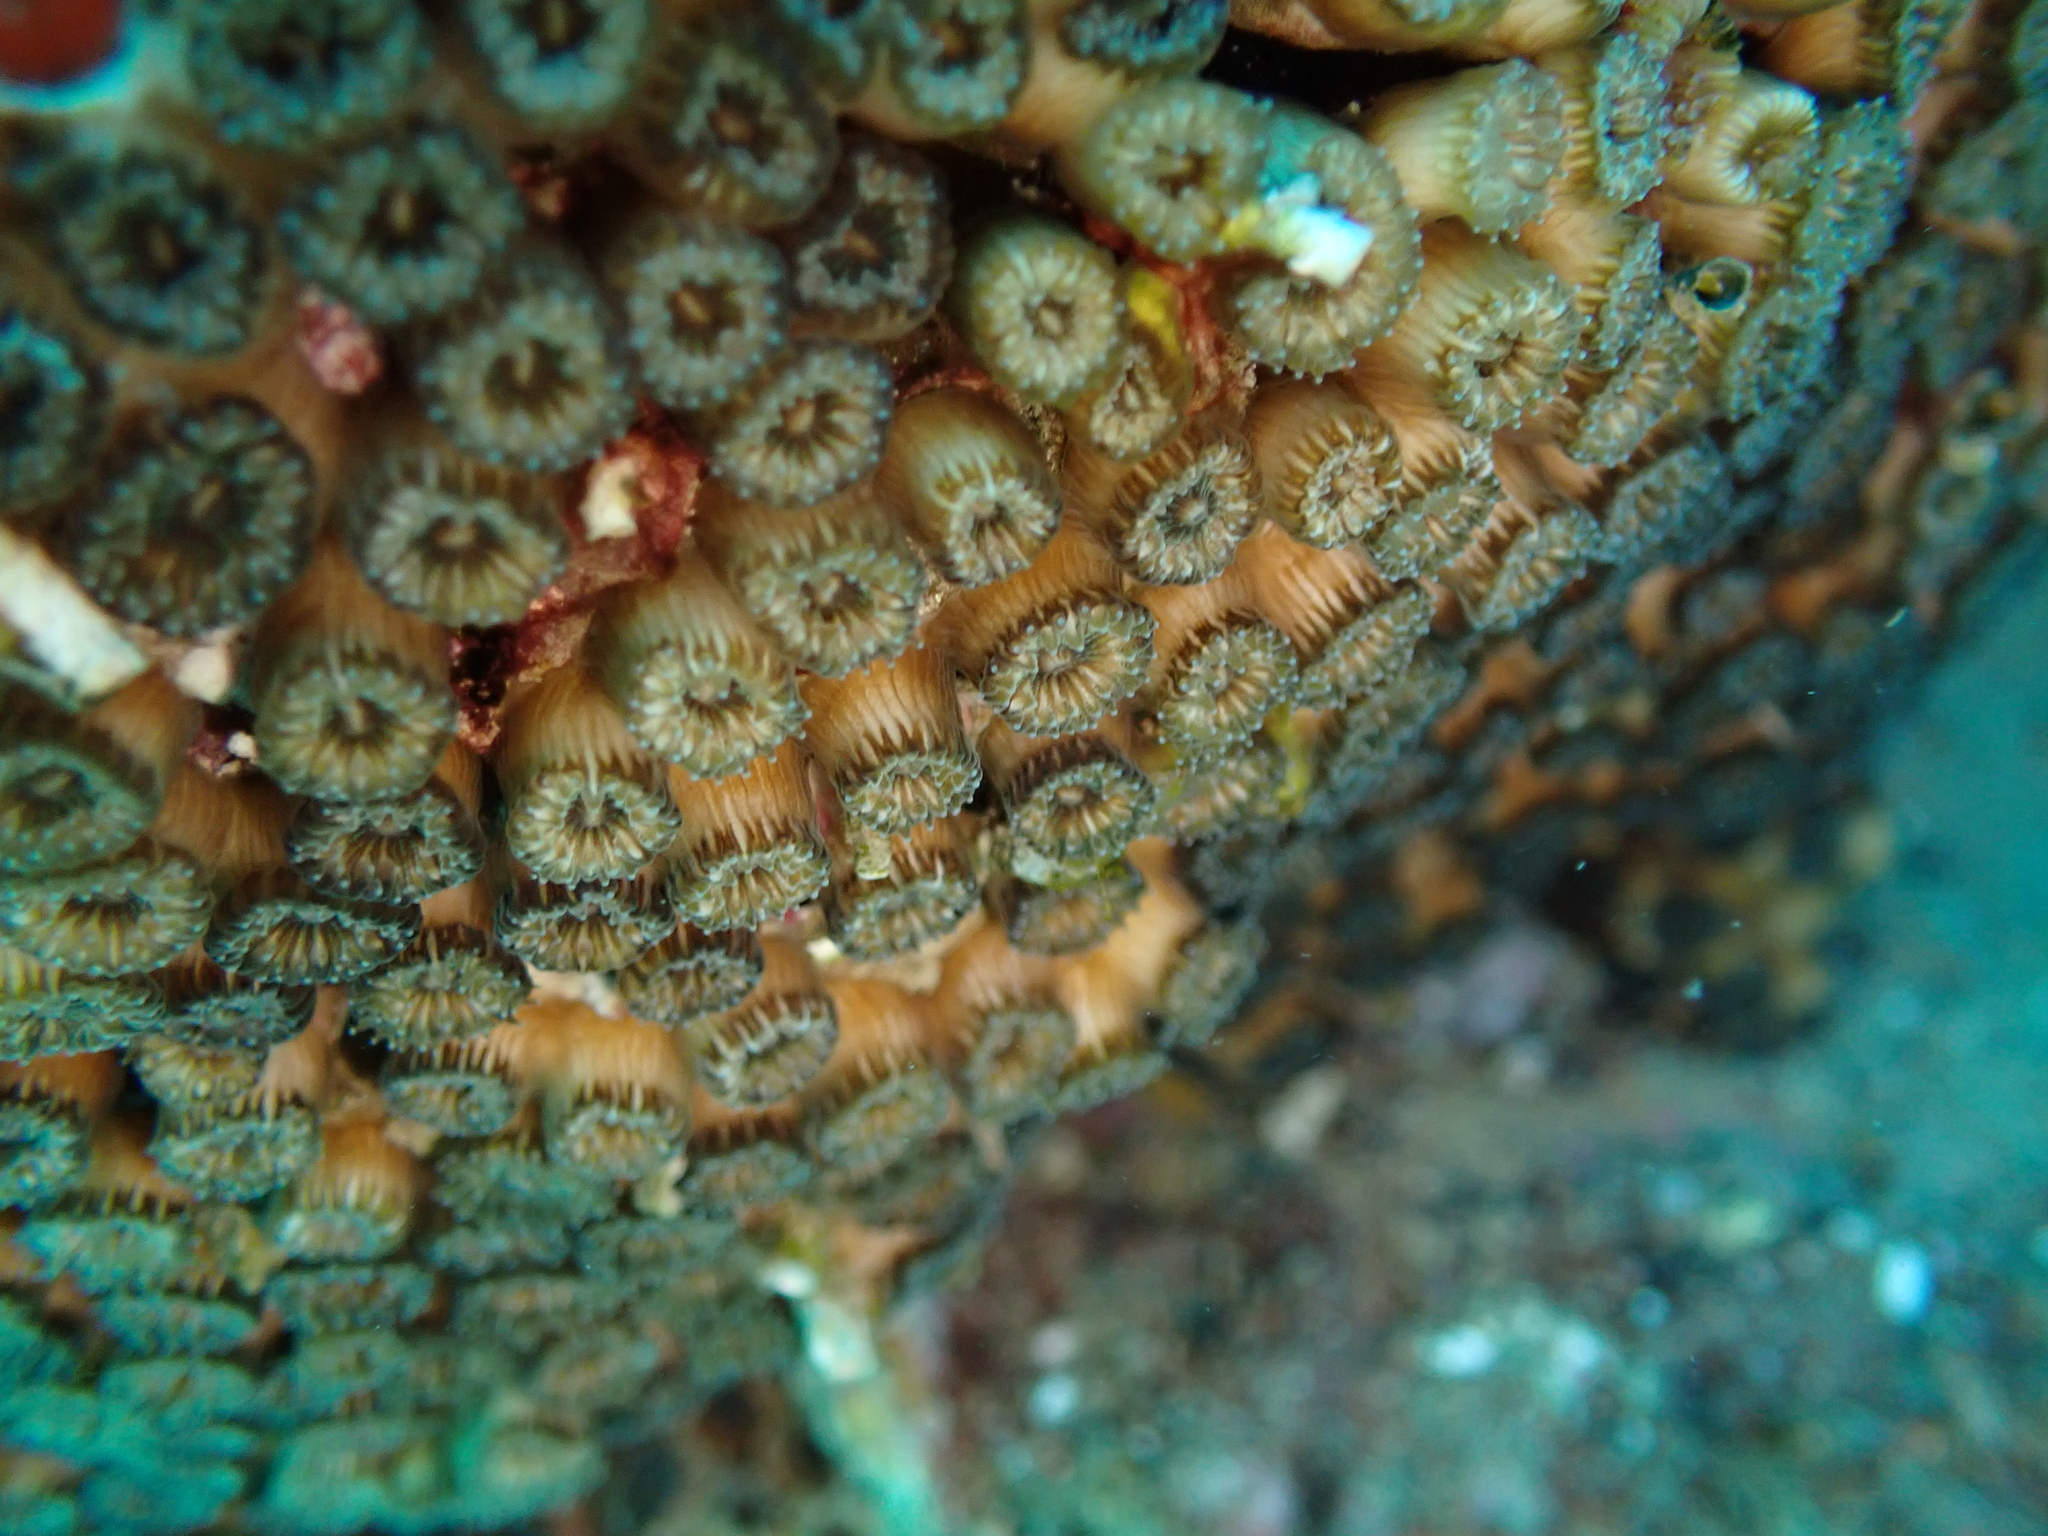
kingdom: Animalia
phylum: Cnidaria
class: Anthozoa
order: Scleractinia
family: Cladocoridae
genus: Cladocora
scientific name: Cladocora caespitosa
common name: Cladocora
